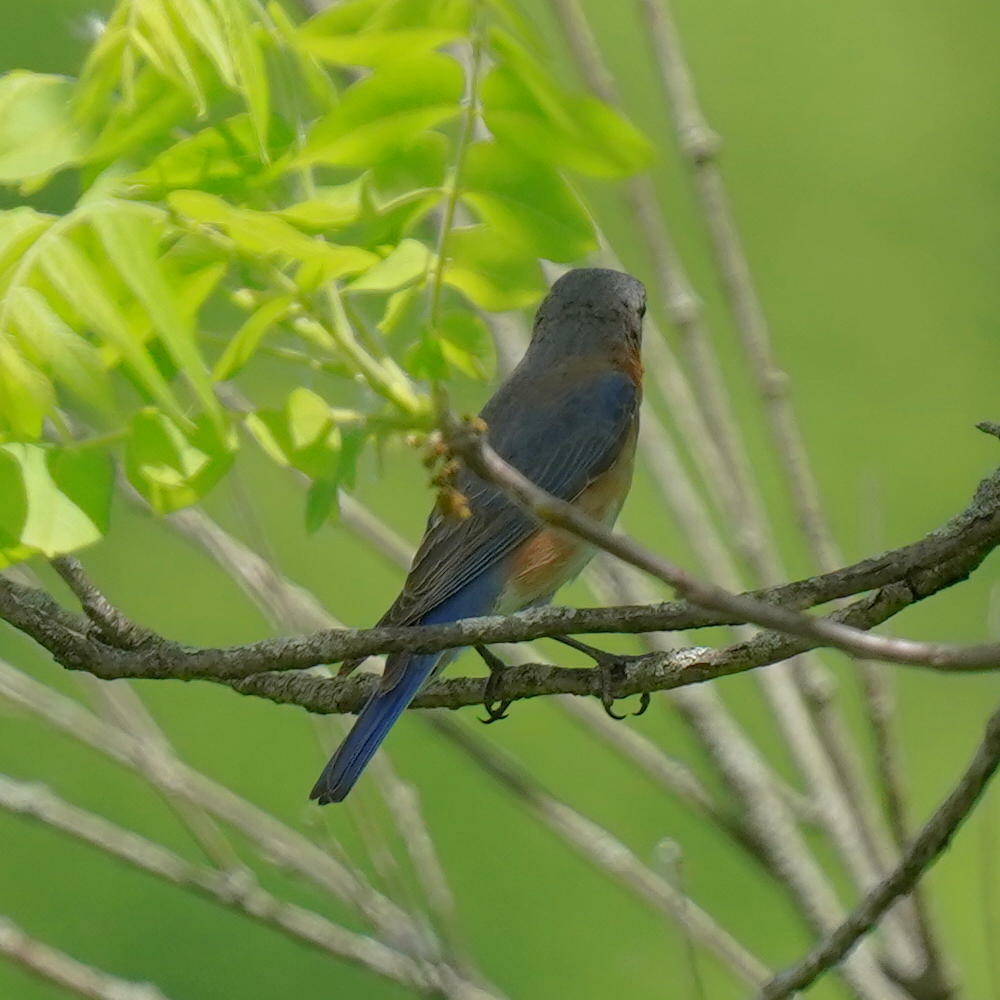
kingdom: Animalia
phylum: Chordata
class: Aves
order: Passeriformes
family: Turdidae
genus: Sialia
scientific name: Sialia sialis
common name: Eastern bluebird
